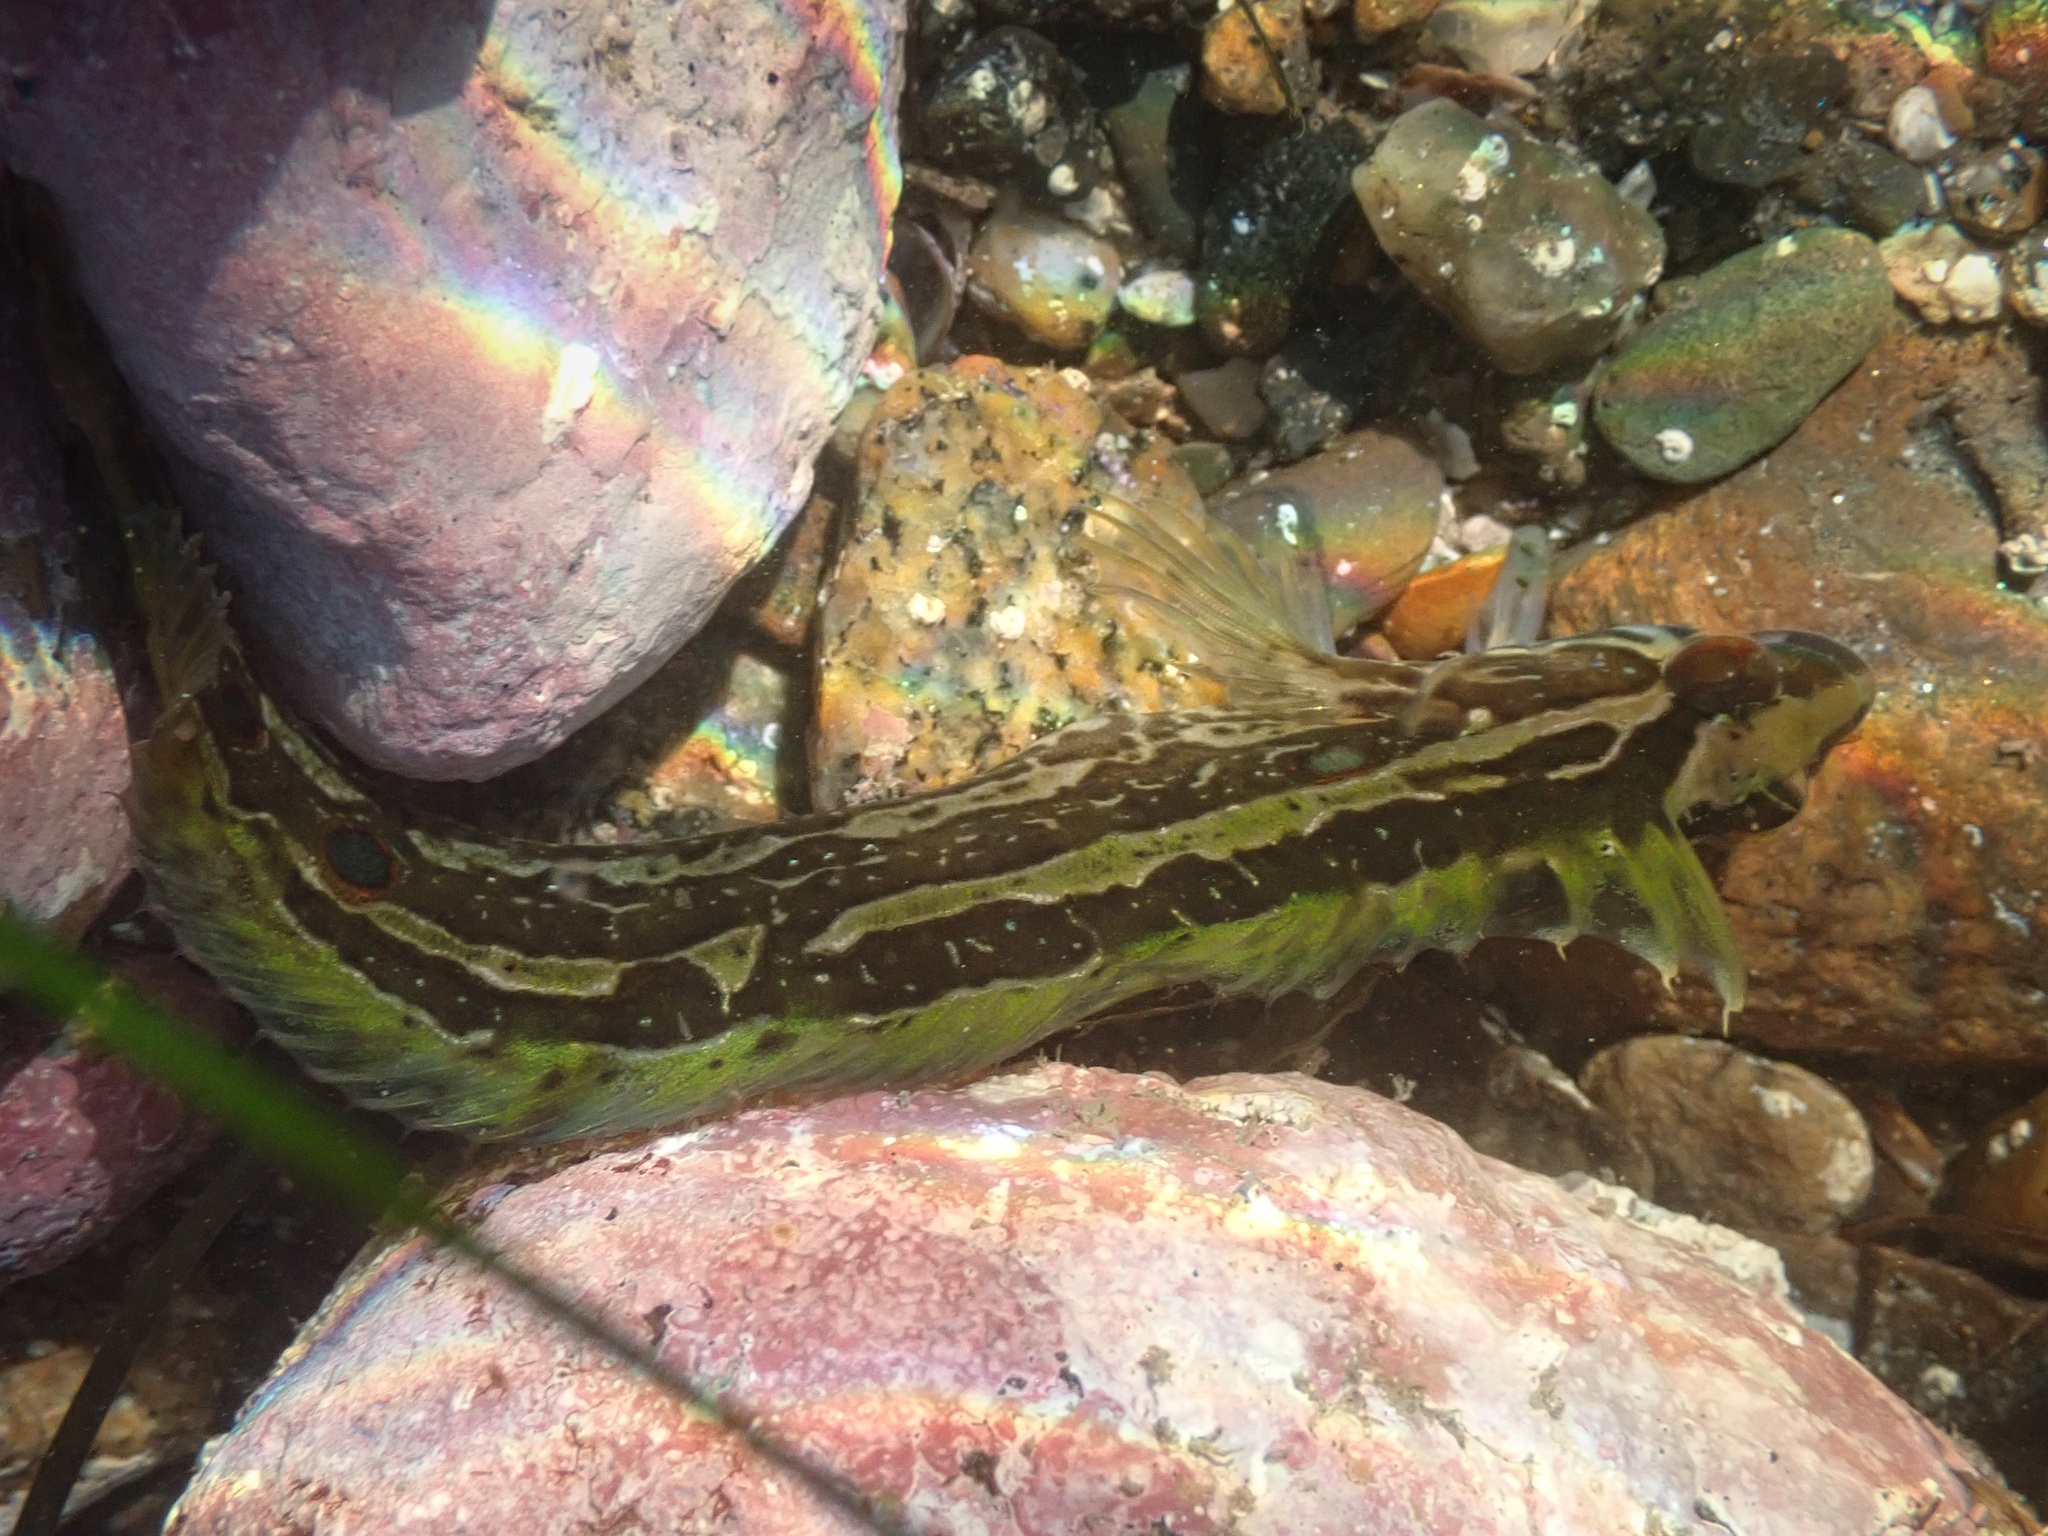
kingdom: Animalia
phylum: Chordata
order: Perciformes
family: Clinidae
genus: Gibbonsia
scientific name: Gibbonsia elegans
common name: Spotted kelpfish
